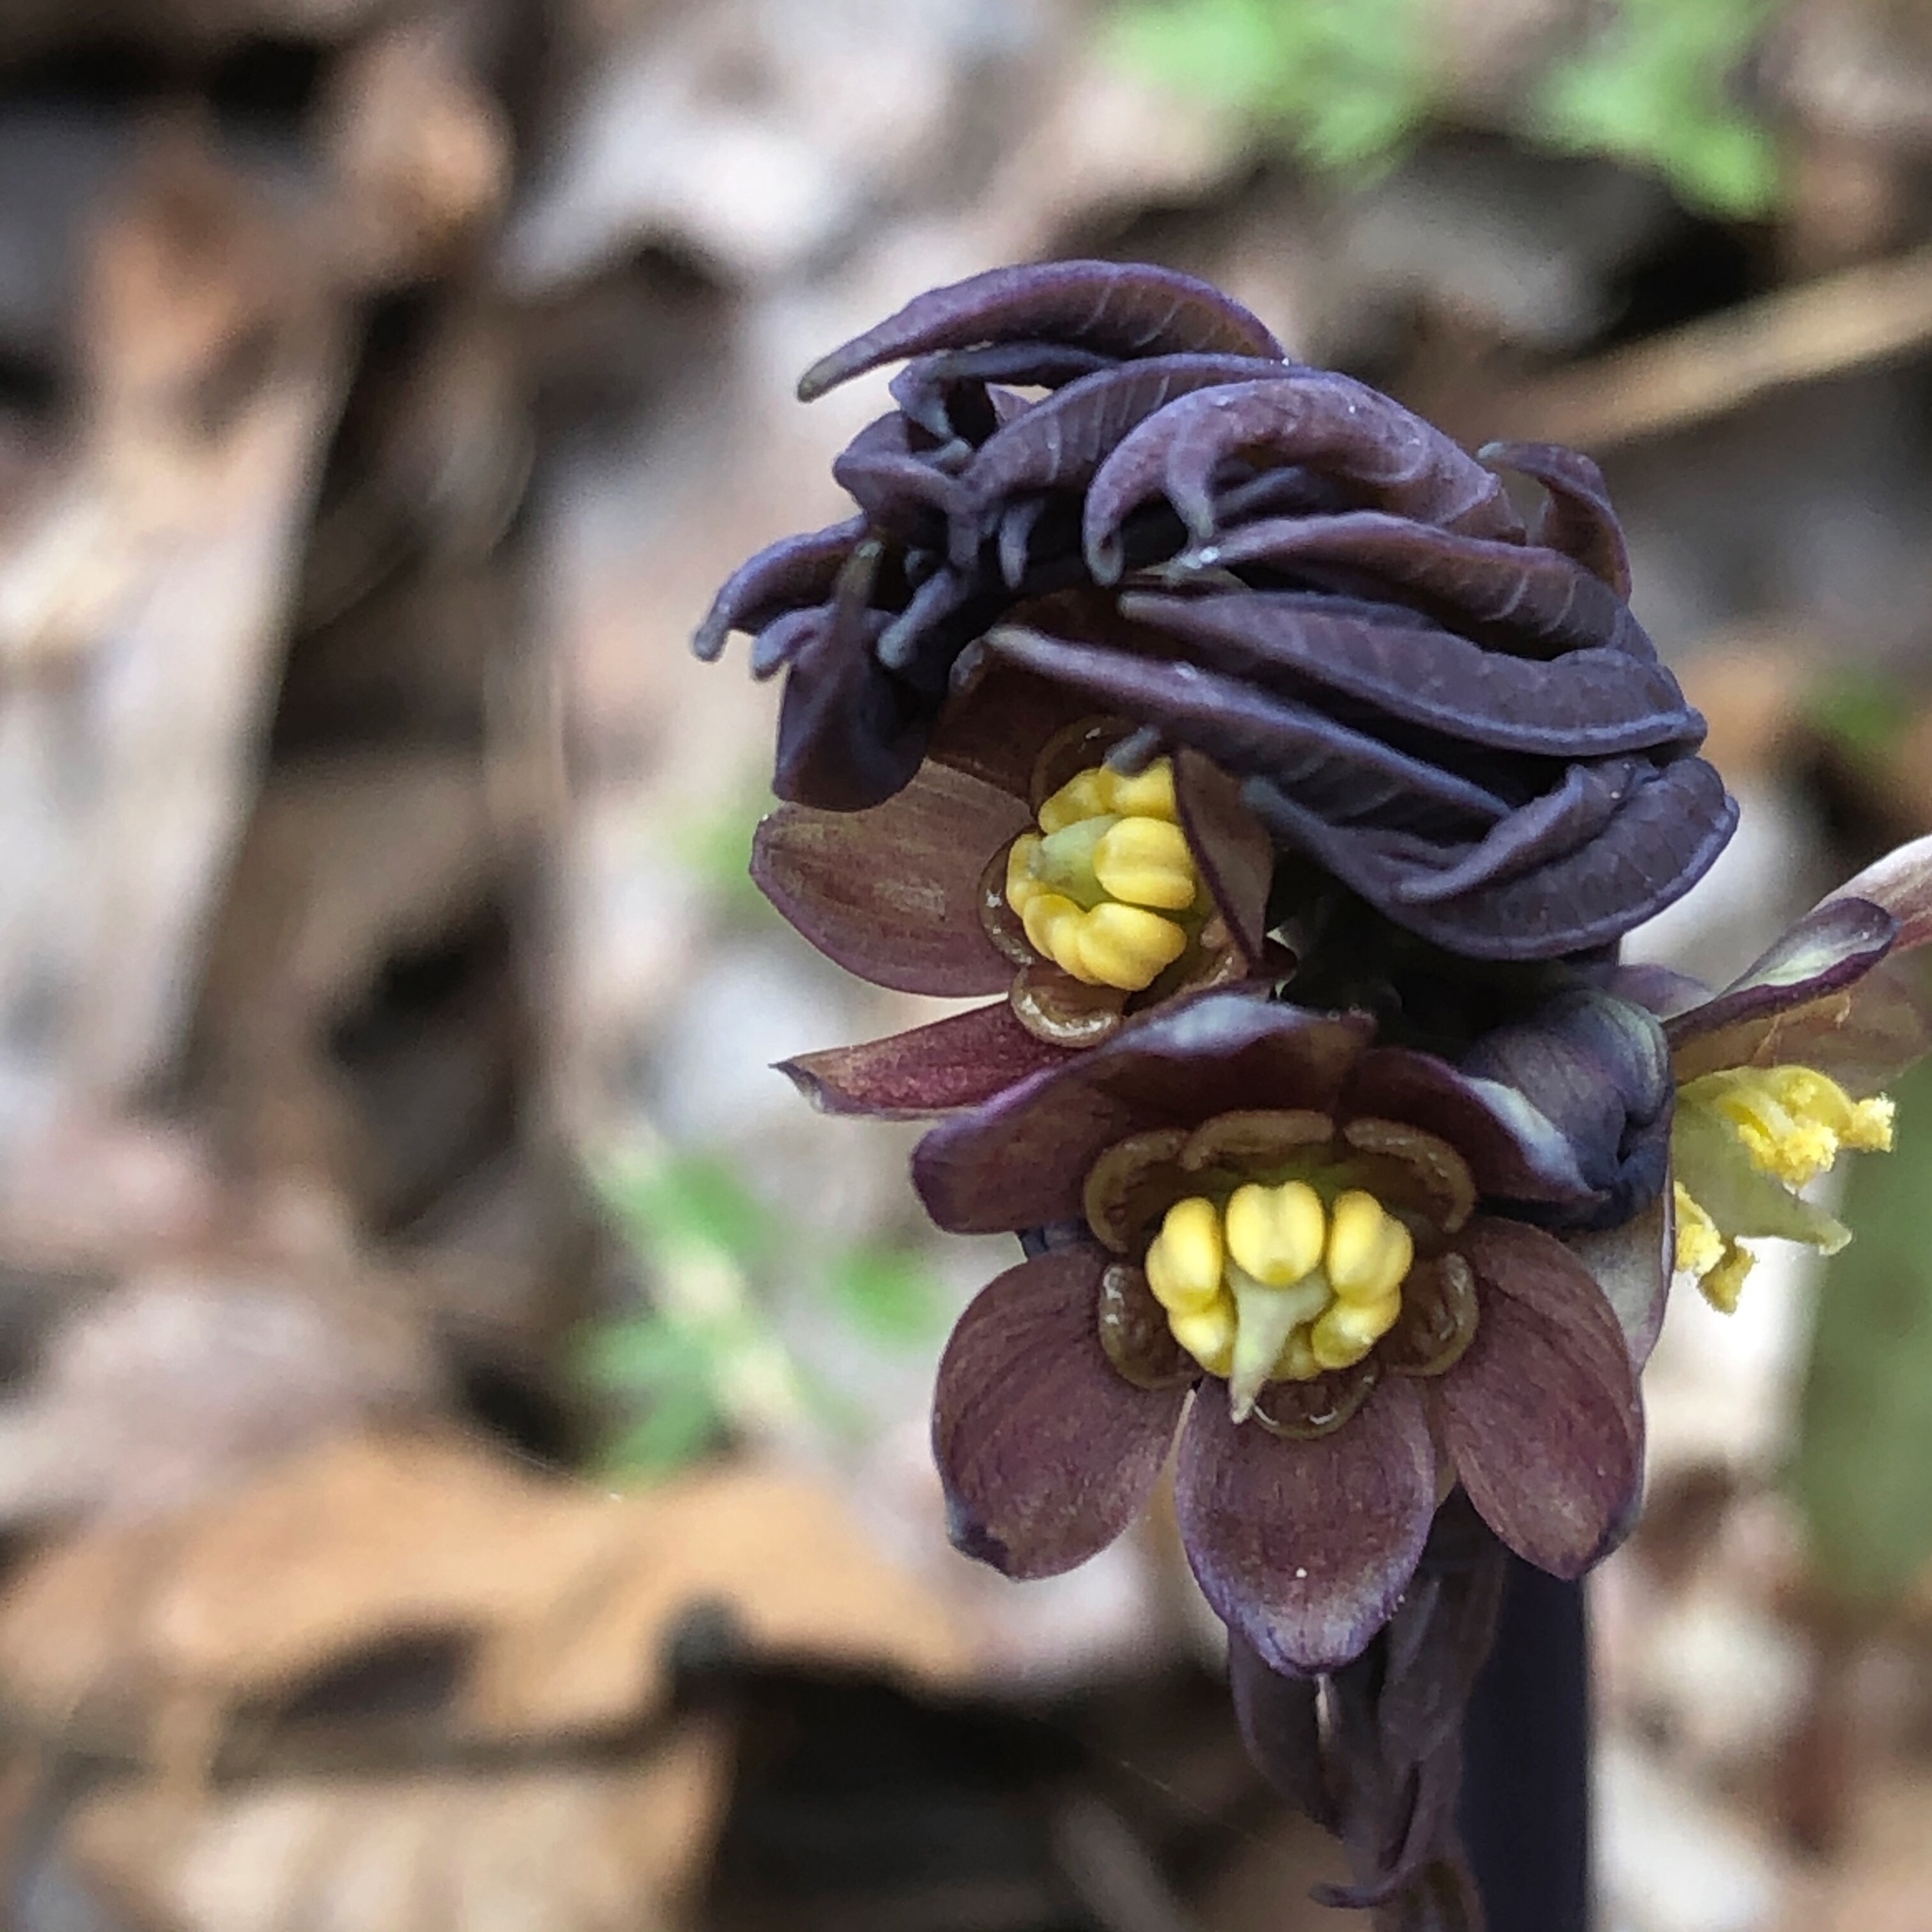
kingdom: Plantae
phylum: Tracheophyta
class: Magnoliopsida
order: Ranunculales
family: Berberidaceae
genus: Caulophyllum
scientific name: Caulophyllum giganteum
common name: Blue cohosh
